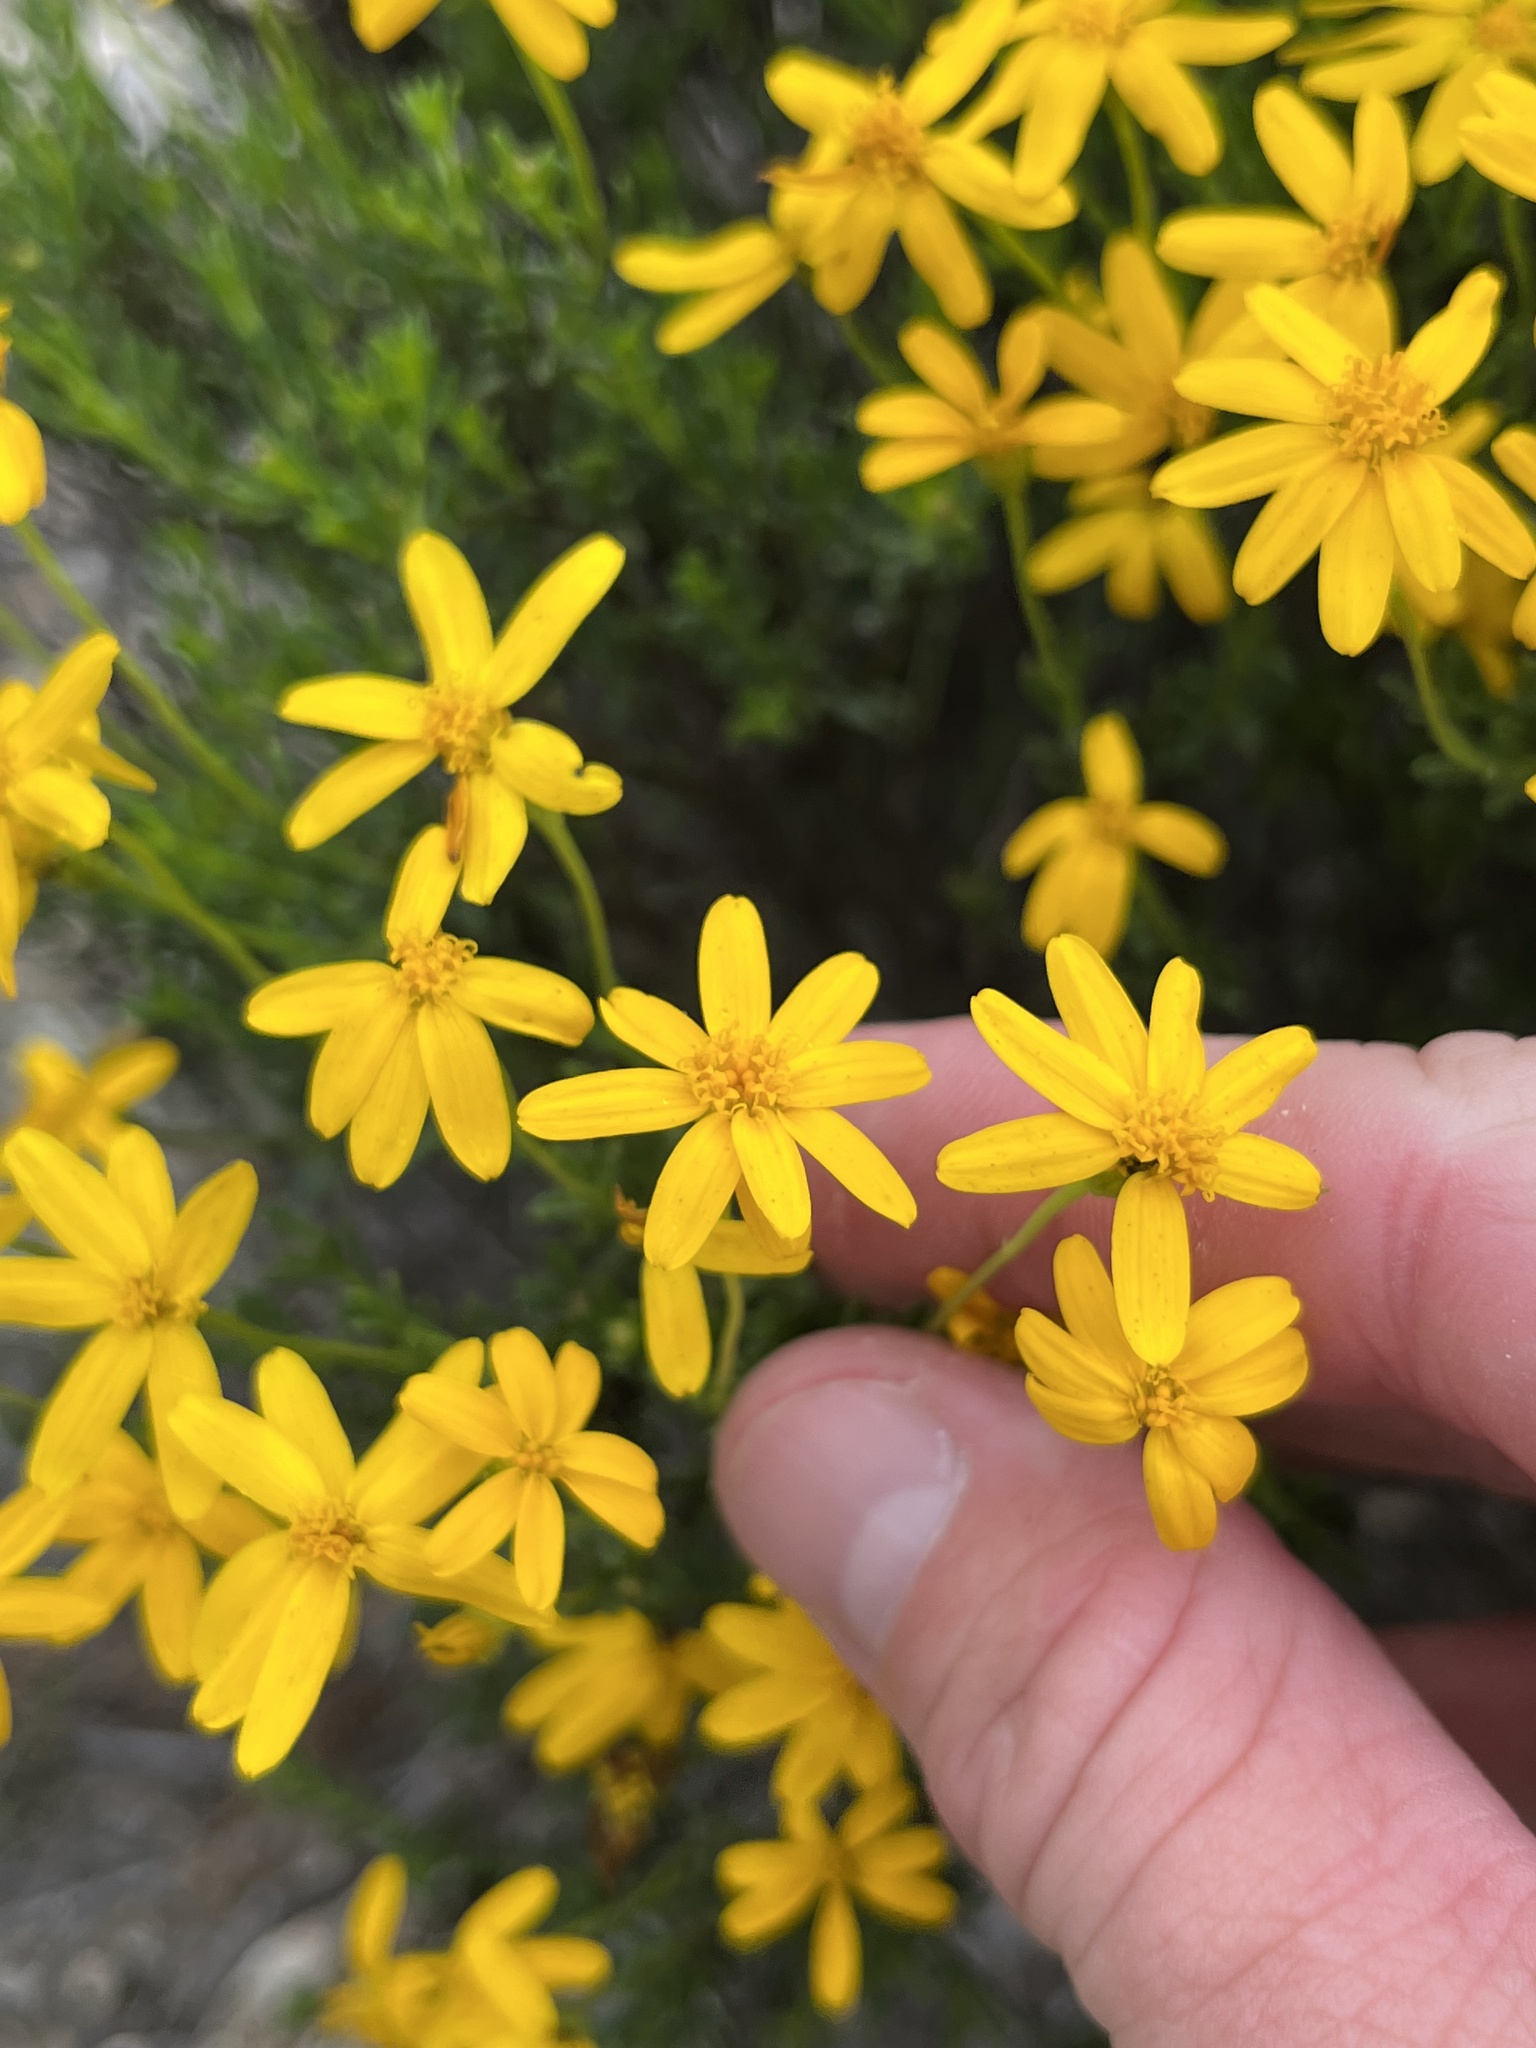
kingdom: Plantae
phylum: Tracheophyta
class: Magnoliopsida
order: Asterales
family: Asteraceae
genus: Chrysactinia
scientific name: Chrysactinia mexicana
